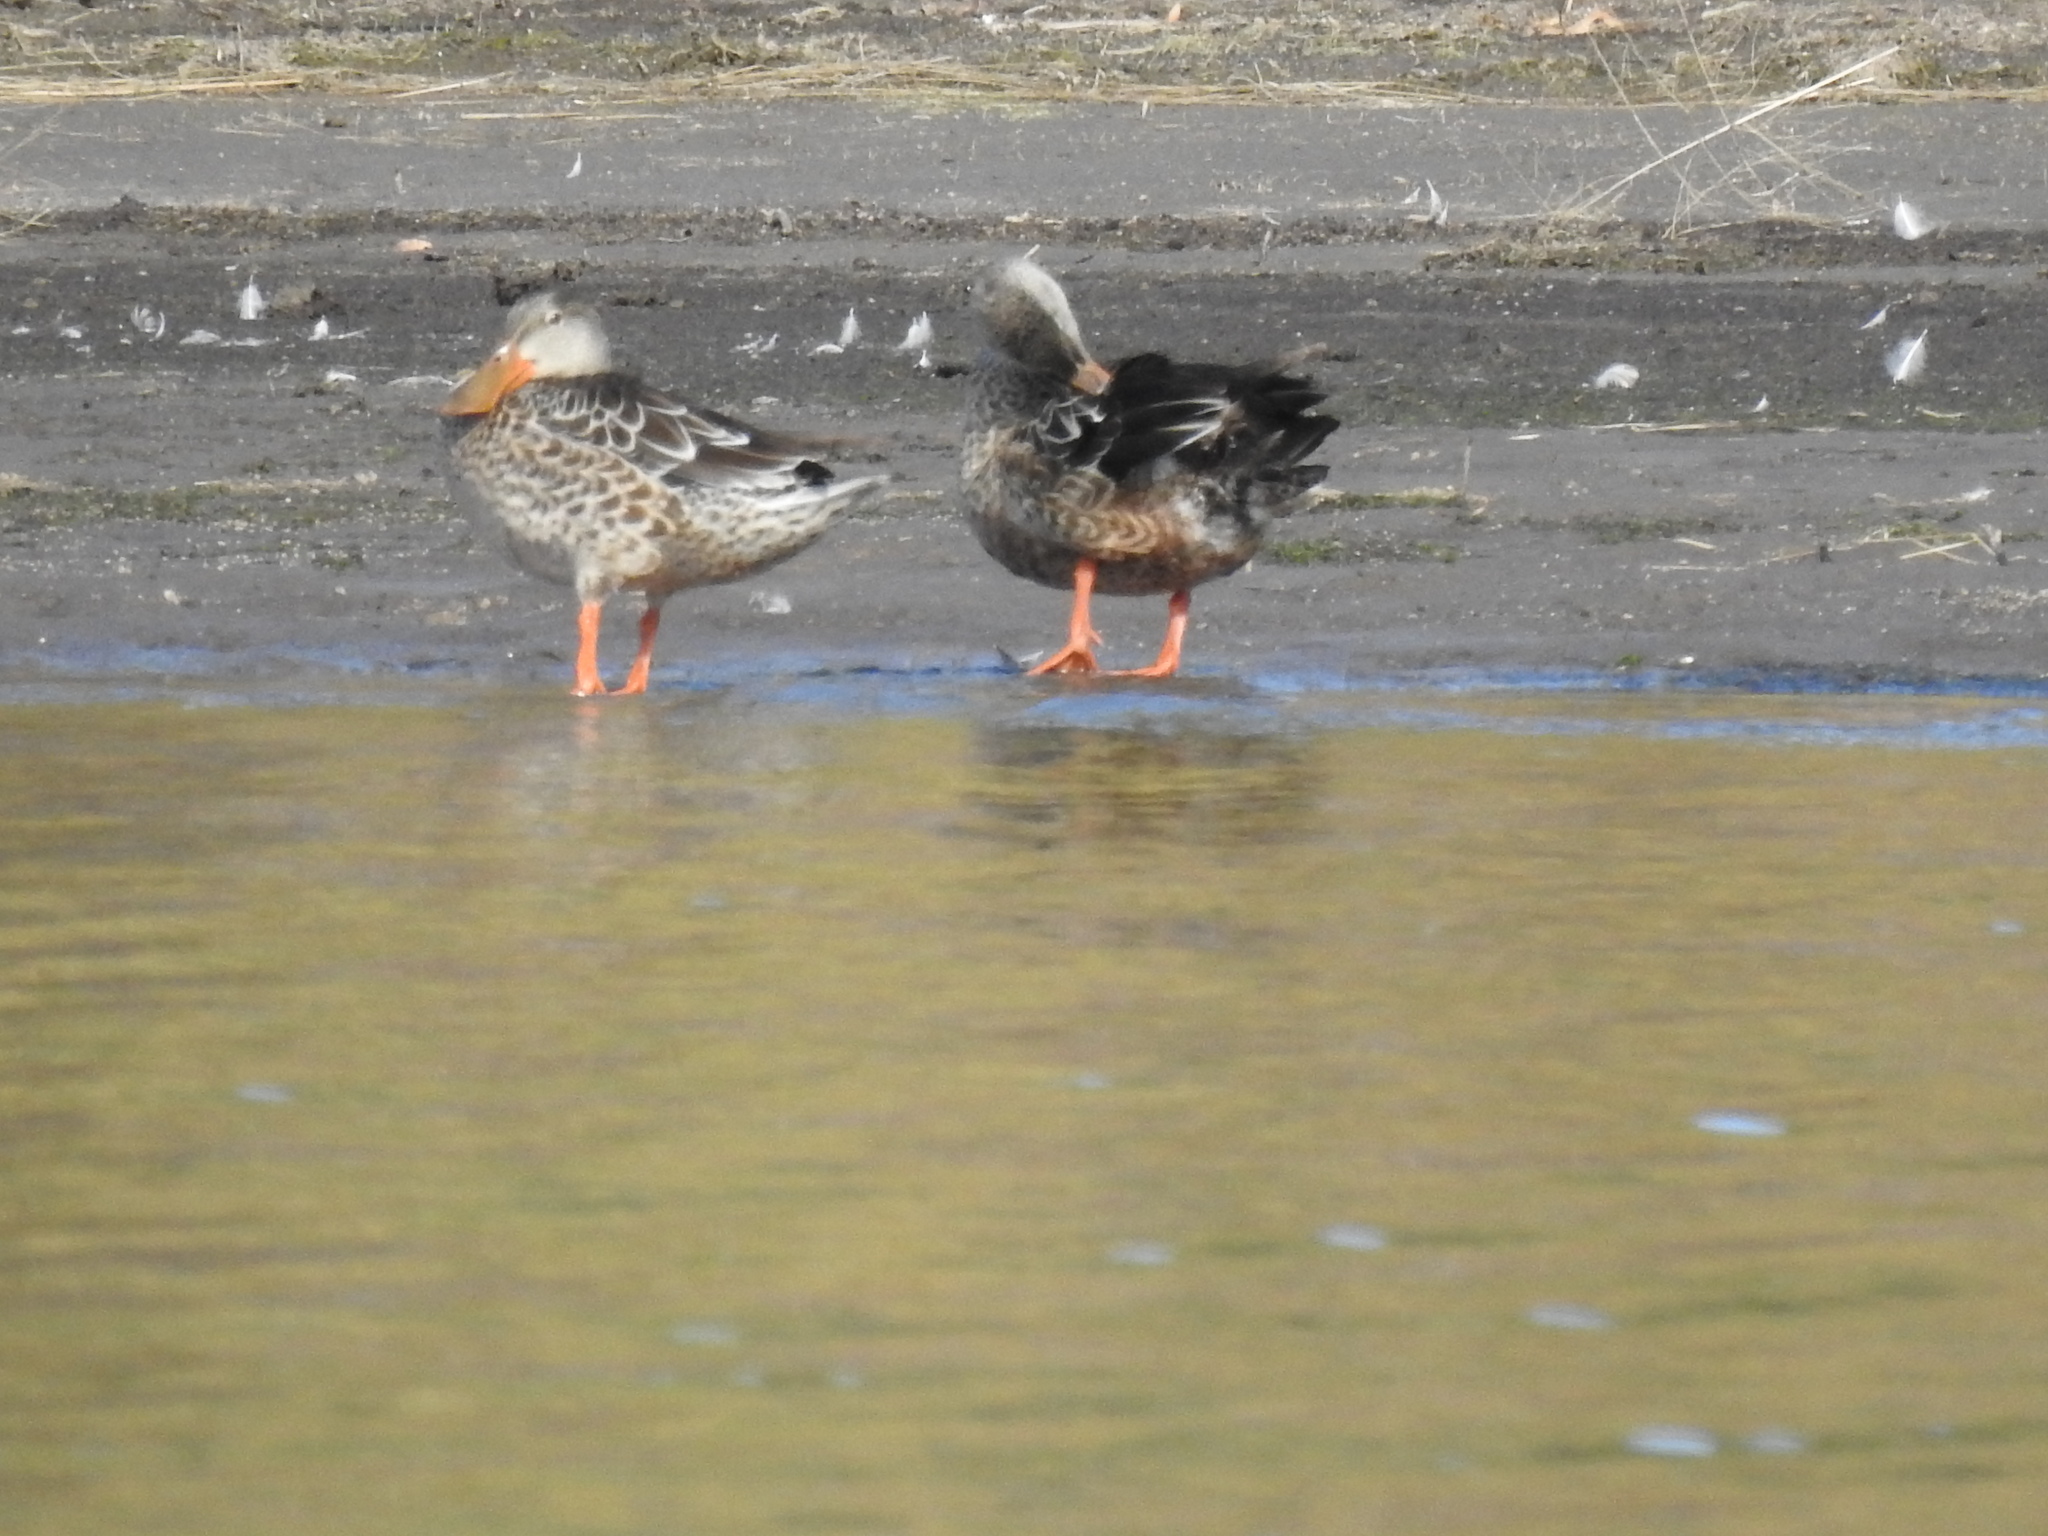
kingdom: Animalia
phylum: Chordata
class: Aves
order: Anseriformes
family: Anatidae
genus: Spatula
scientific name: Spatula clypeata
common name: Northern shoveler
